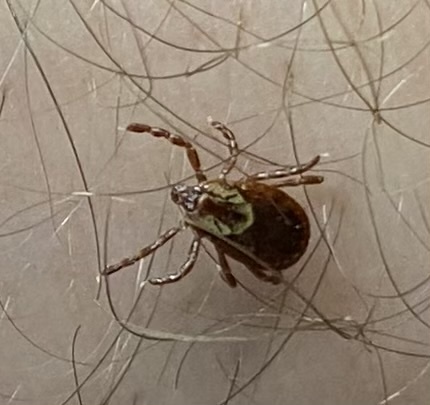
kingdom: Animalia
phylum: Arthropoda
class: Arachnida
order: Ixodida
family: Ixodidae
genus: Dermacentor
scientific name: Dermacentor variabilis
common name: American dog tick
